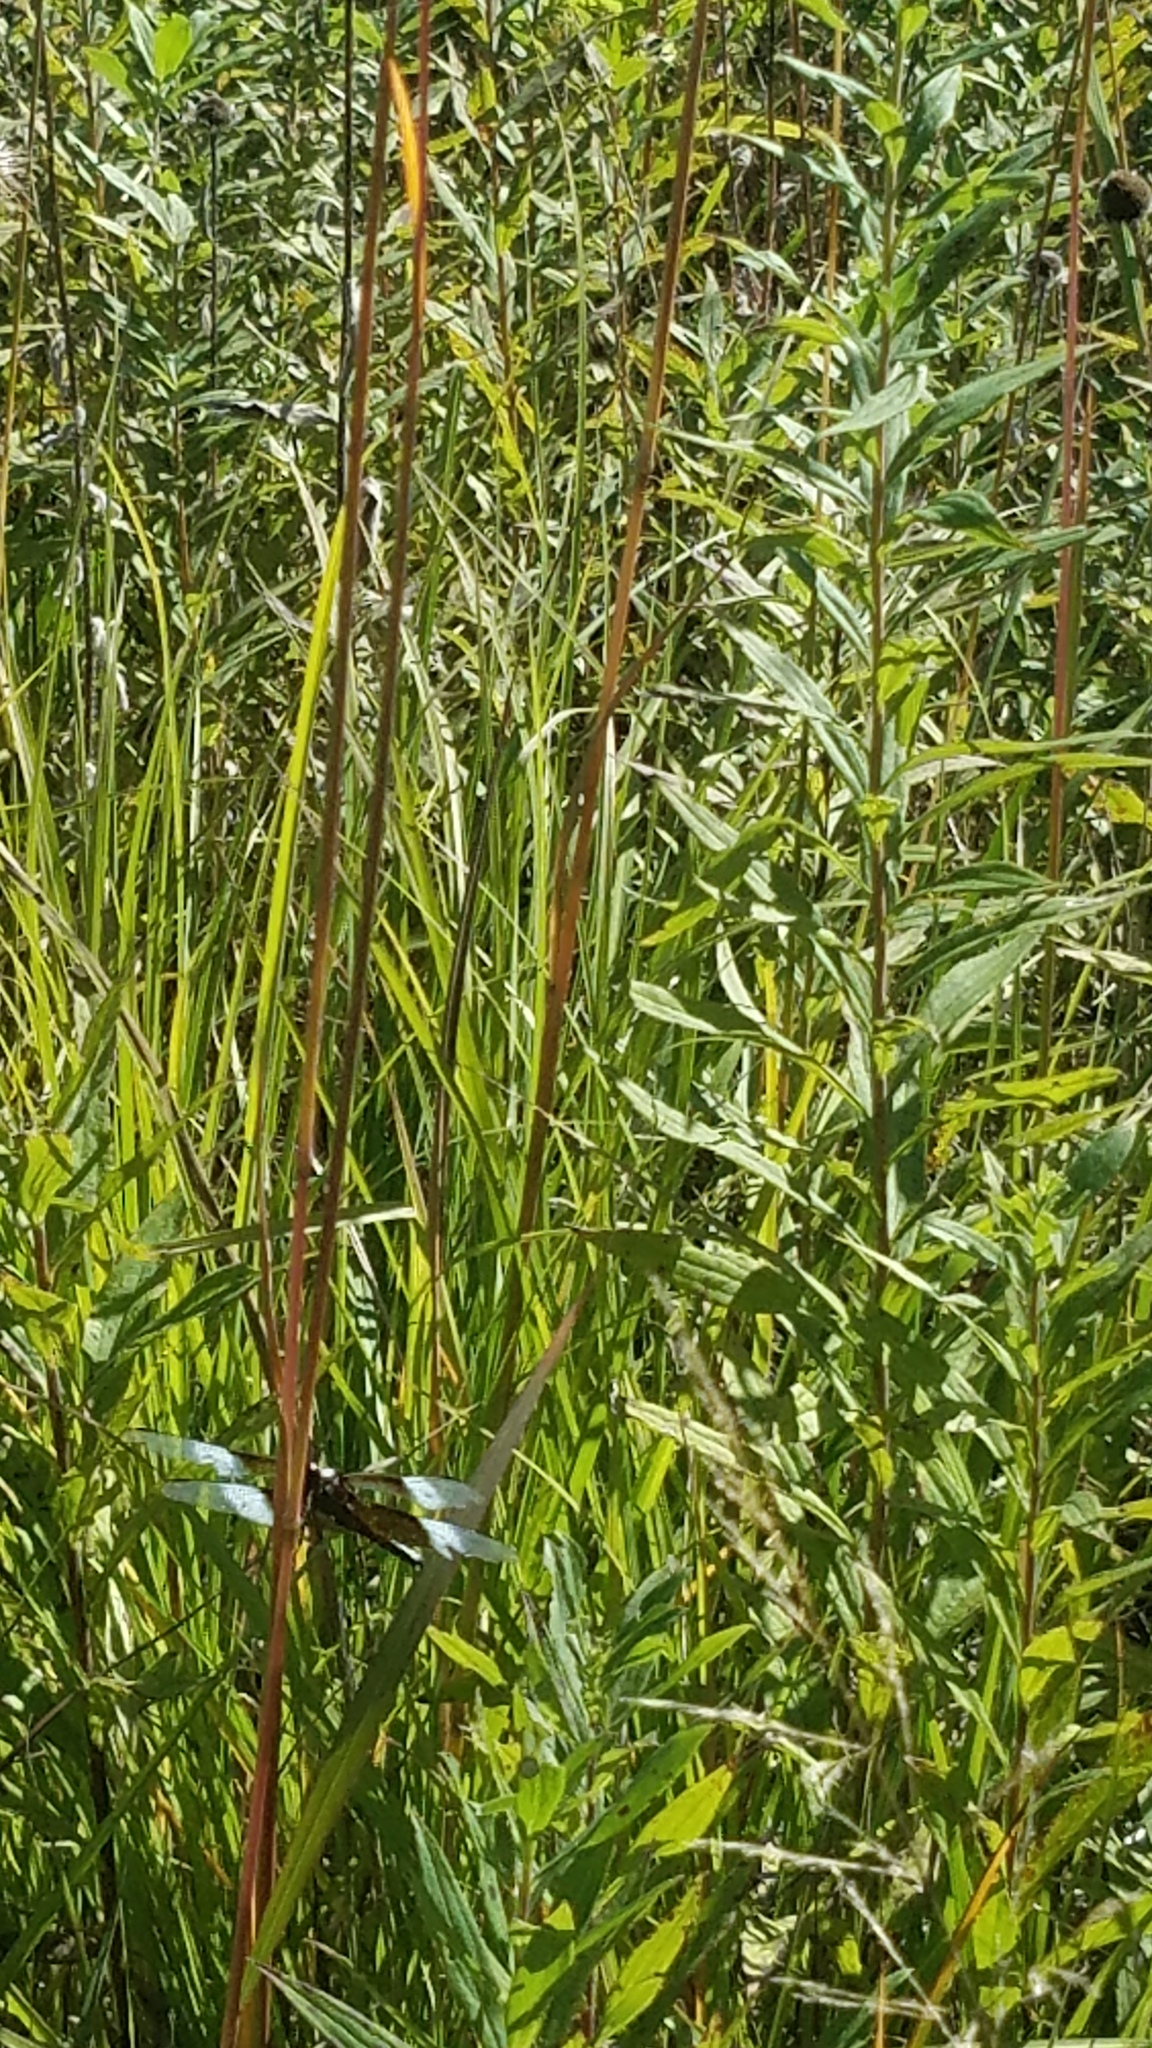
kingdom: Animalia
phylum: Arthropoda
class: Insecta
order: Odonata
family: Libellulidae
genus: Libellula
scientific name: Libellula luctuosa
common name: Widow skimmer
